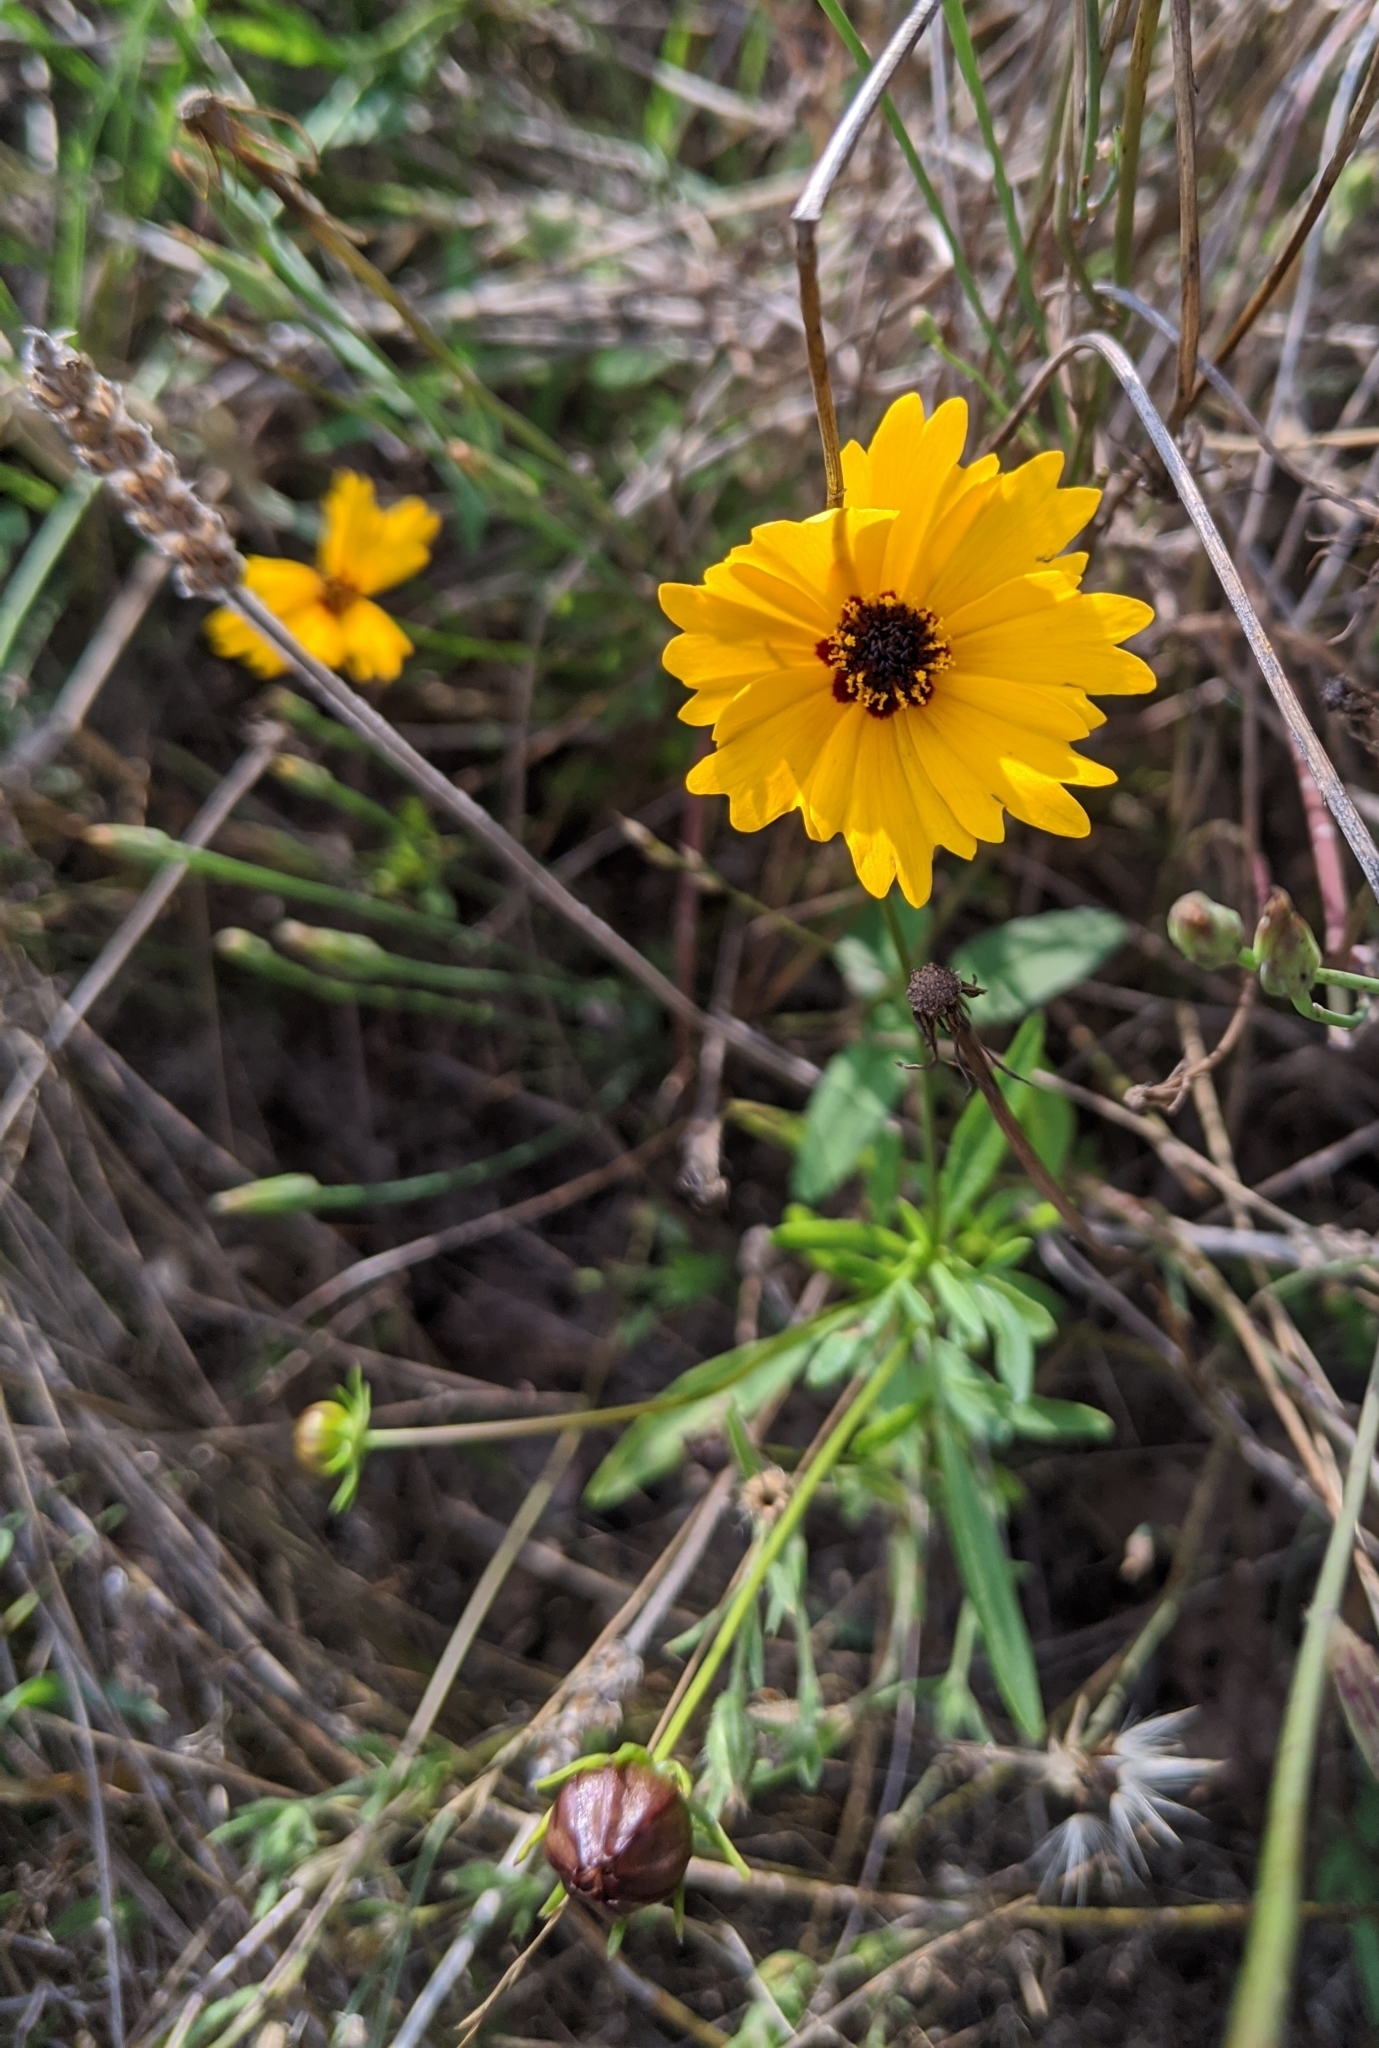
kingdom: Plantae
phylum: Tracheophyta
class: Magnoliopsida
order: Asterales
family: Asteraceae
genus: Coreopsis
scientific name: Coreopsis basalis
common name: Golden-mane coreopsis
